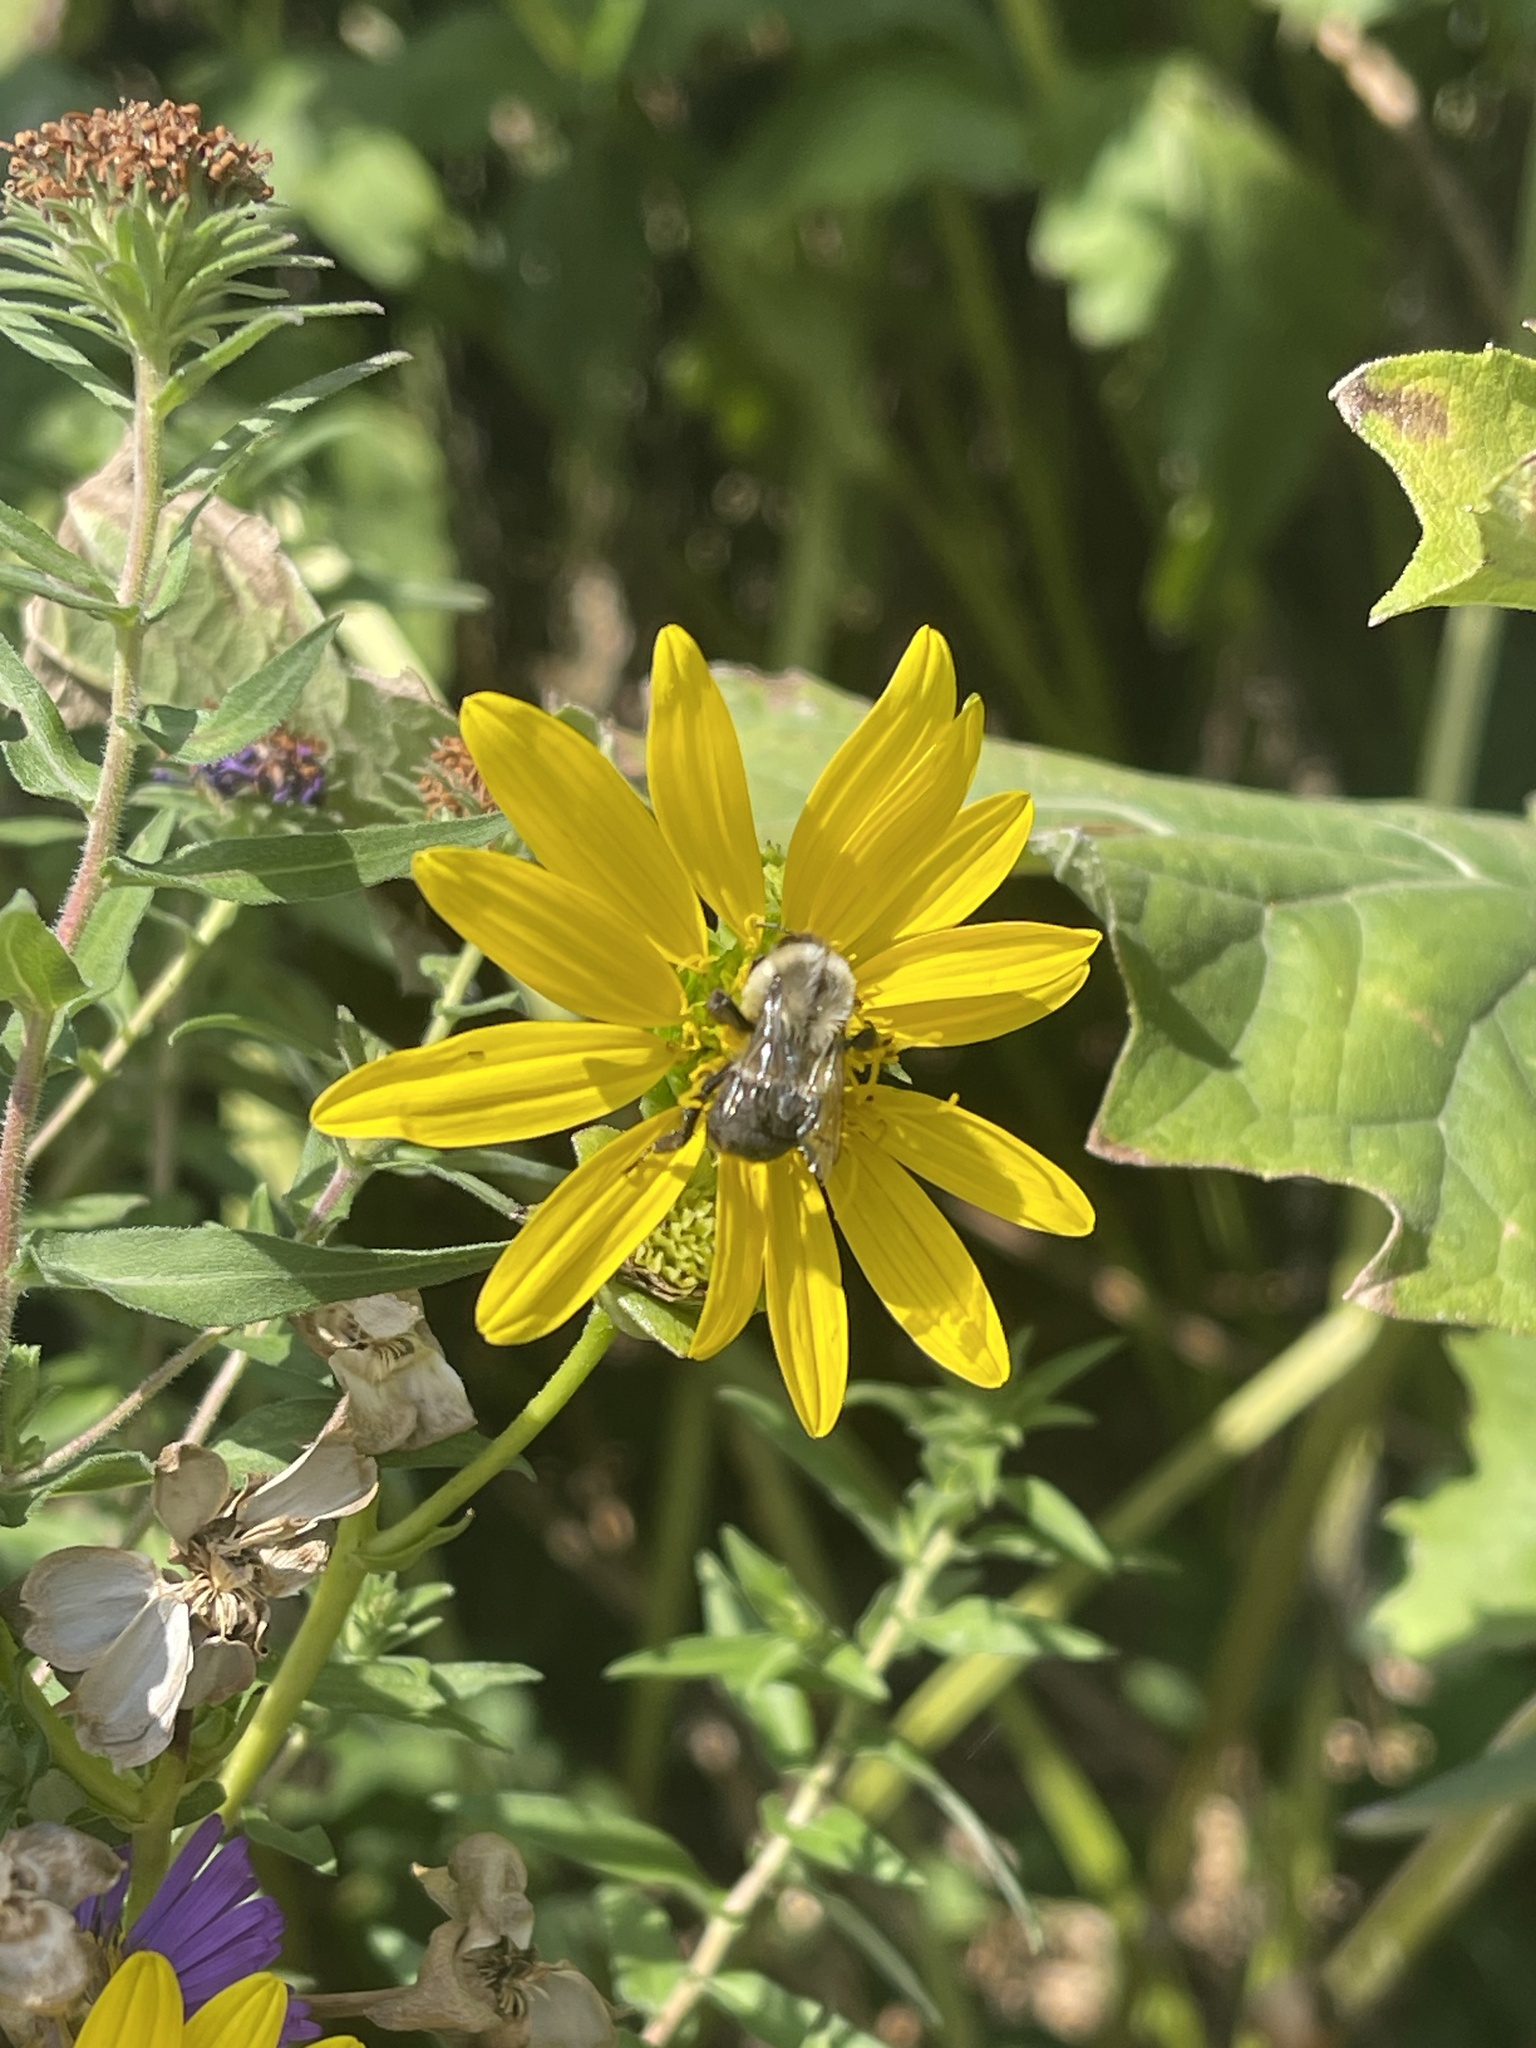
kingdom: Animalia
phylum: Arthropoda
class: Insecta
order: Hymenoptera
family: Apidae
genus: Bombus
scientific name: Bombus impatiens
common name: Common eastern bumble bee
